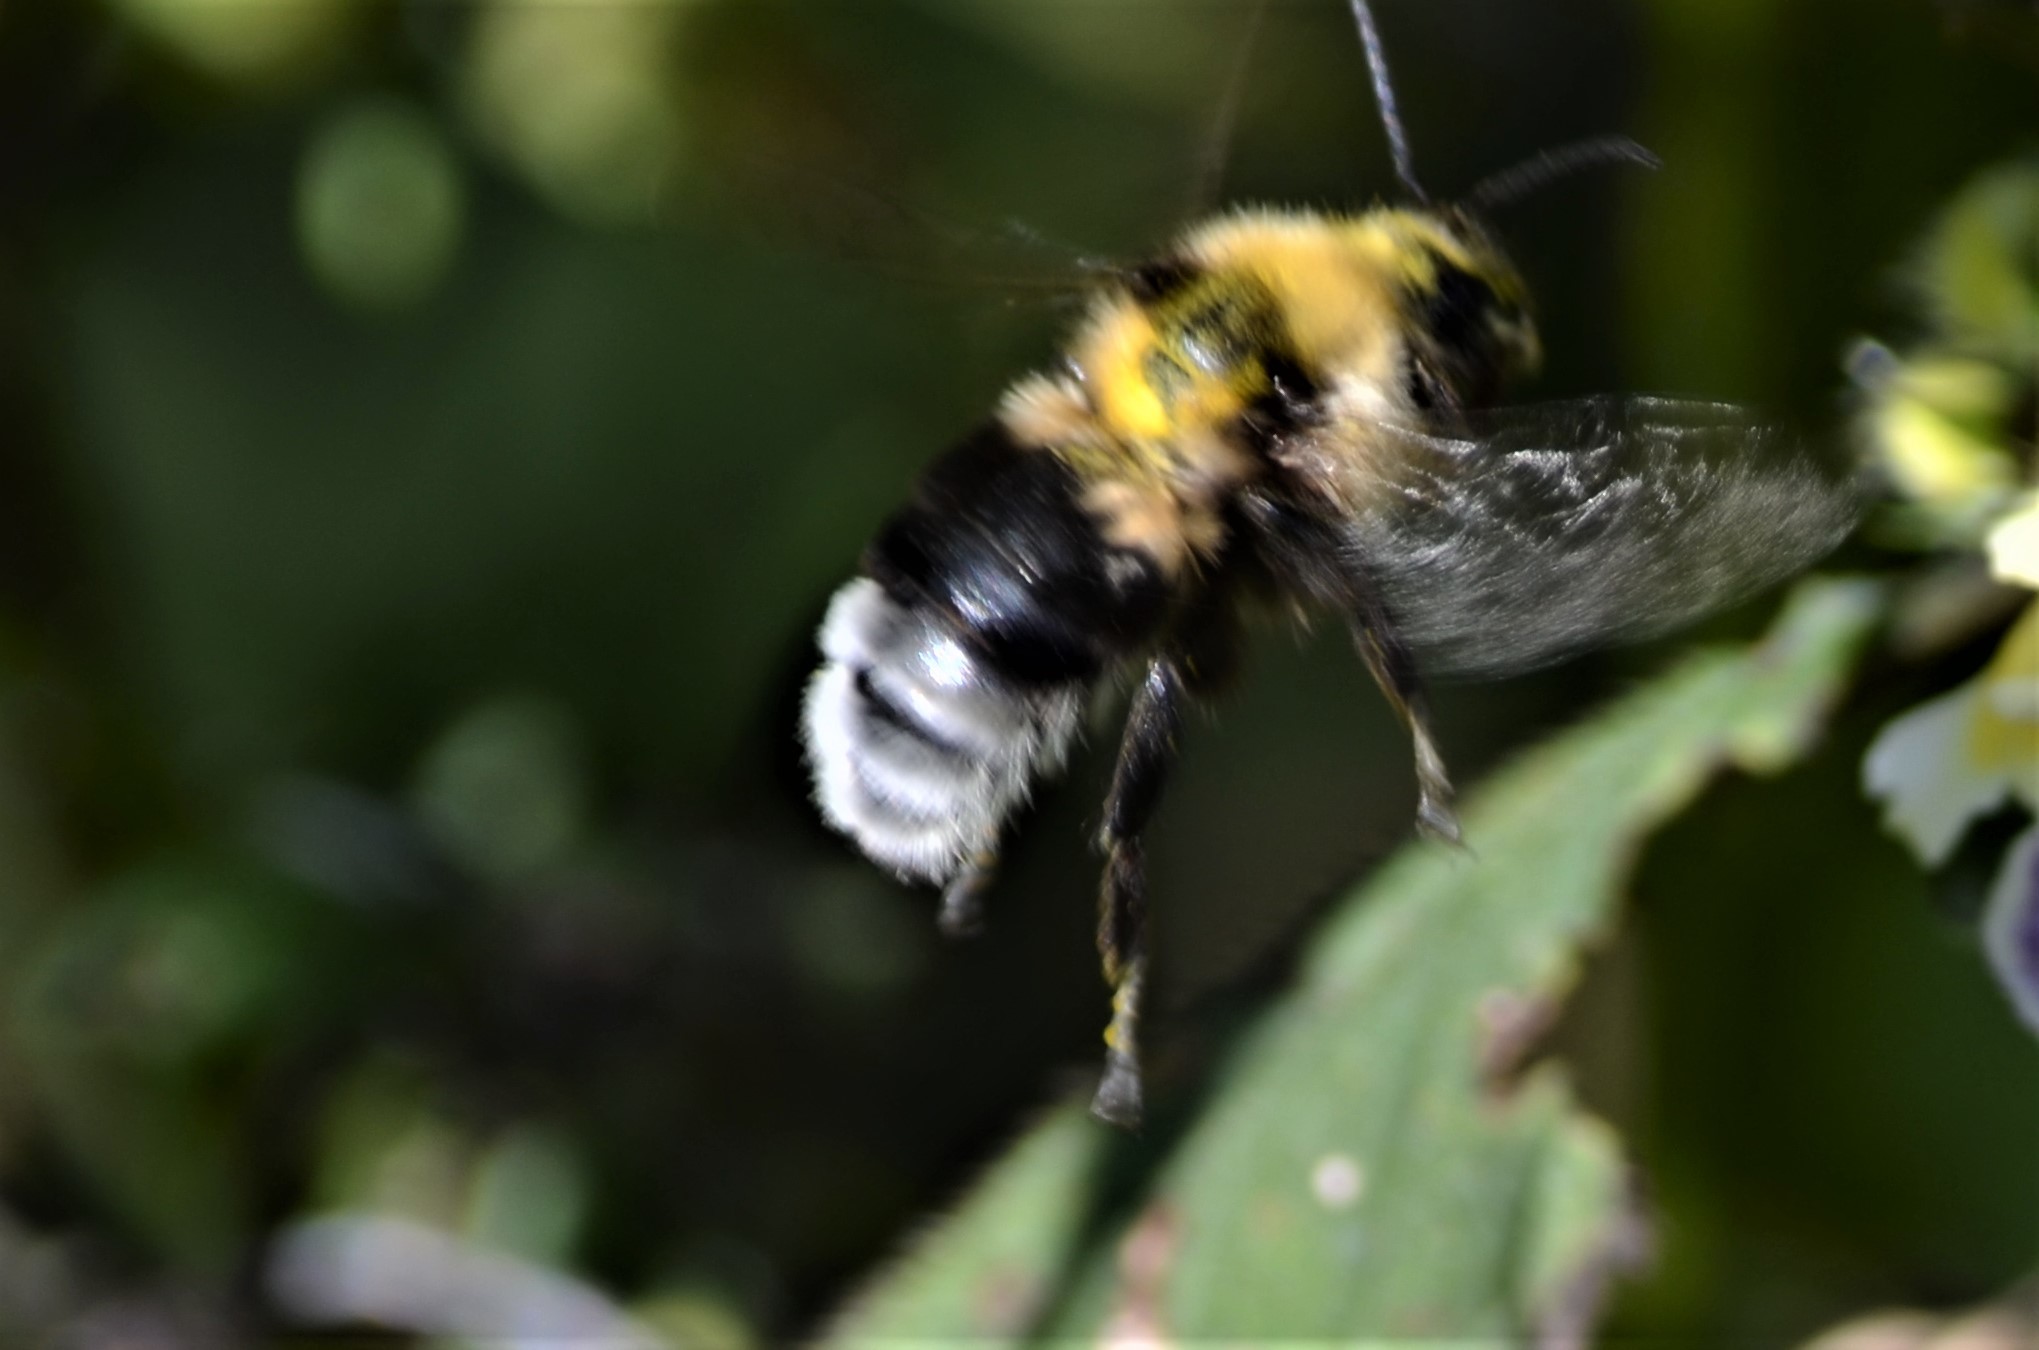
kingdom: Animalia
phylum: Arthropoda
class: Insecta
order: Hymenoptera
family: Apidae
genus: Bombus
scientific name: Bombus argillaceus
